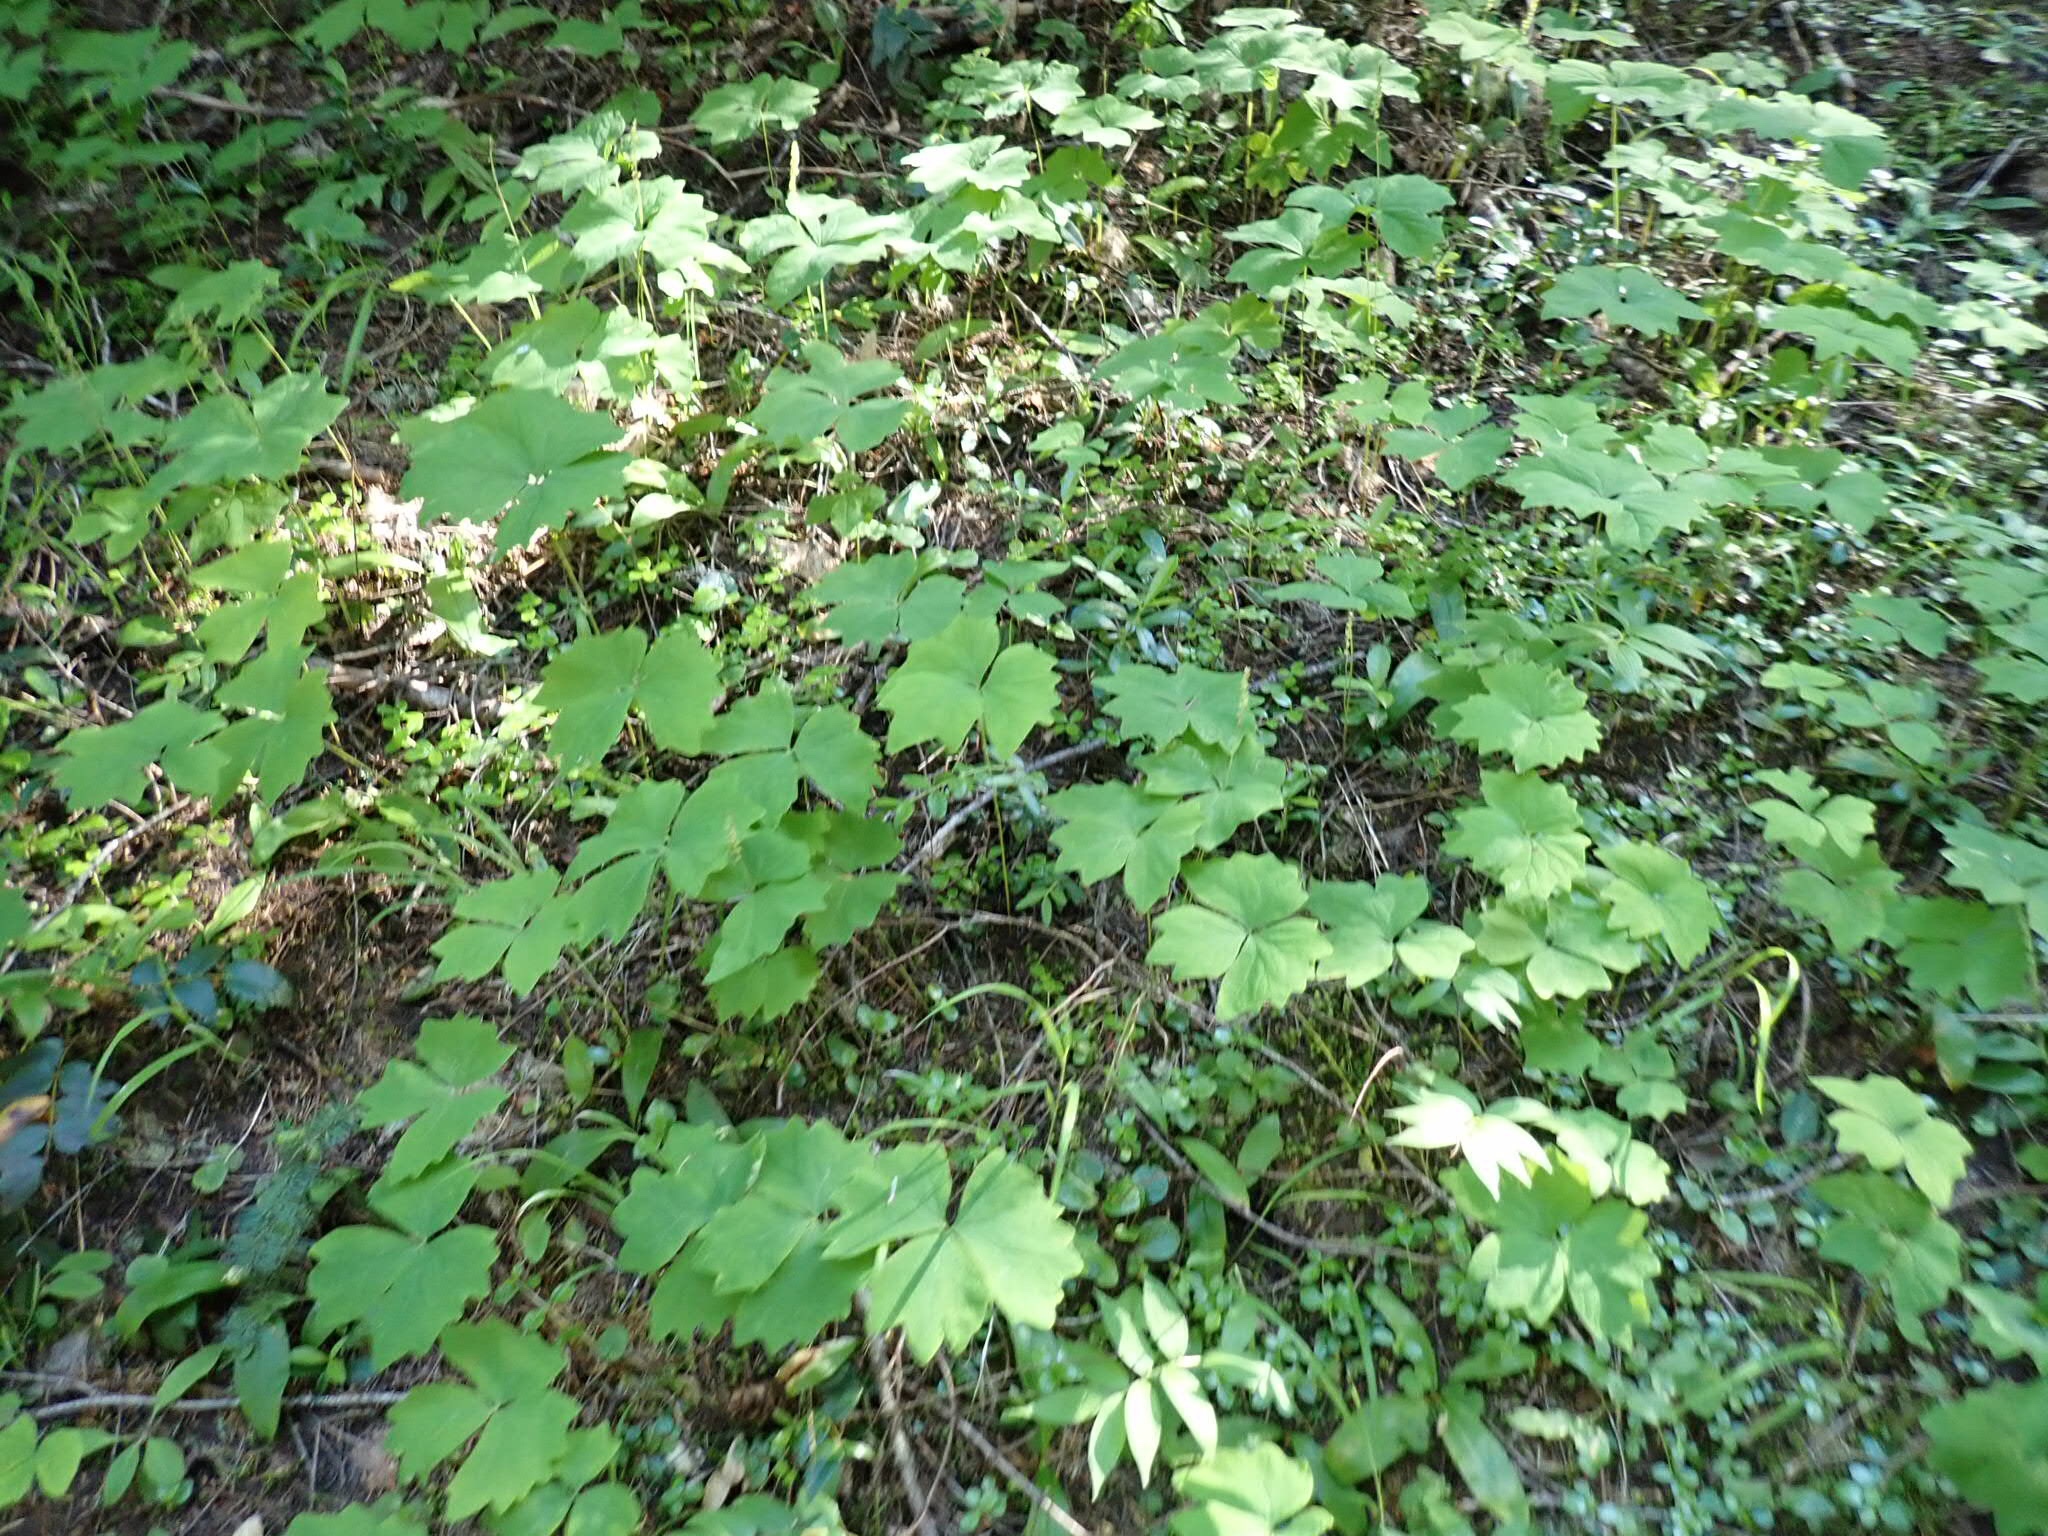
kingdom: Plantae
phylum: Tracheophyta
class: Magnoliopsida
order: Ranunculales
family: Berberidaceae
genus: Achlys
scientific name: Achlys triphylla
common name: Vanilla-leaf
